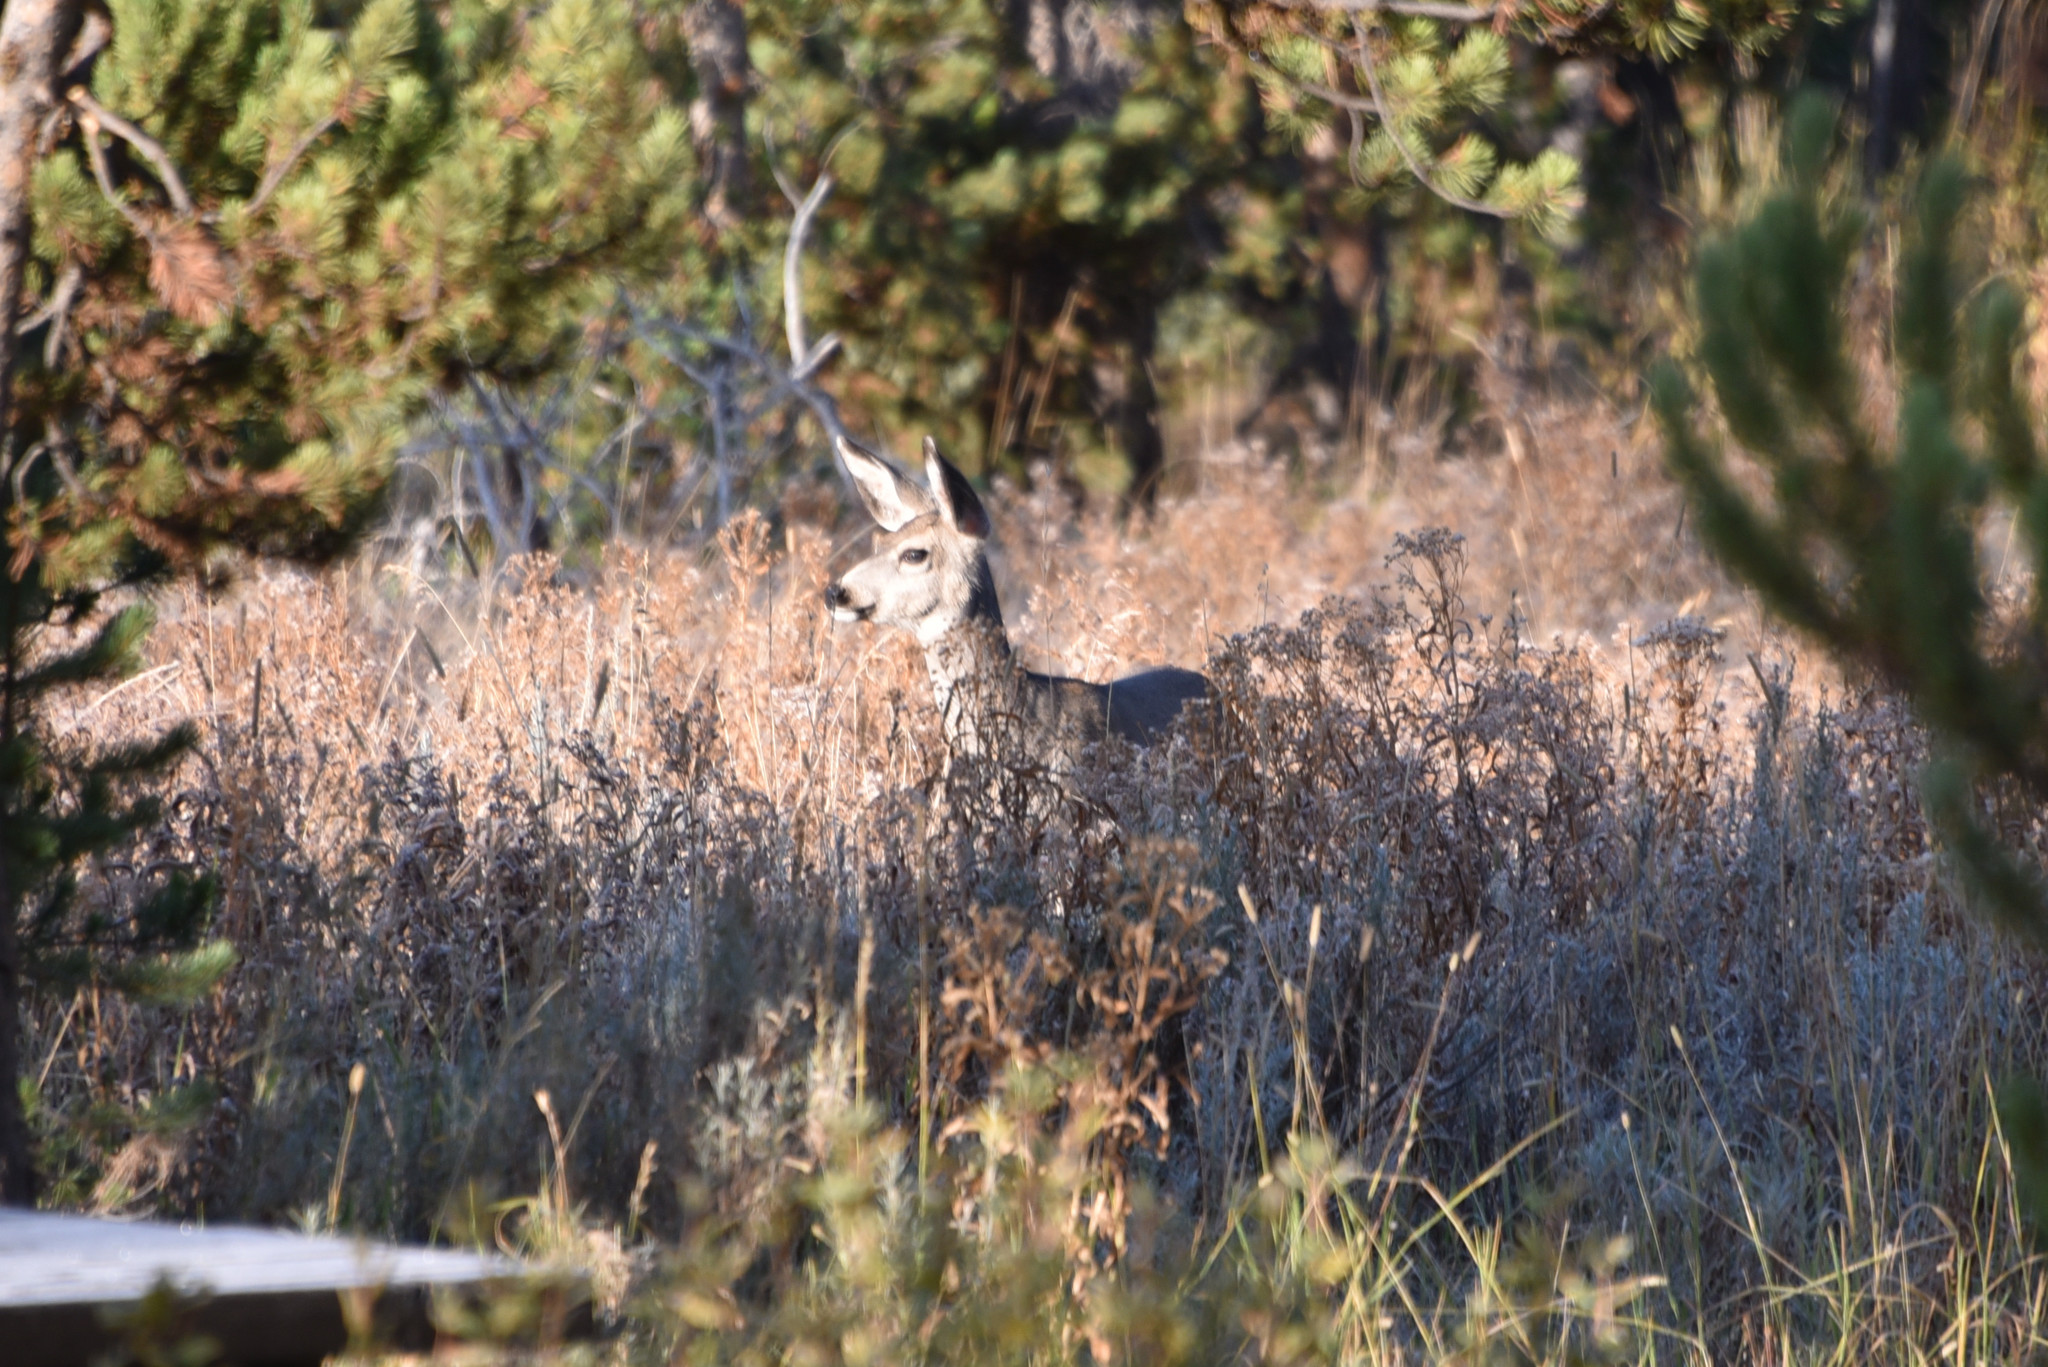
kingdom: Animalia
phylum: Chordata
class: Mammalia
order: Artiodactyla
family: Cervidae
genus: Odocoileus
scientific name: Odocoileus hemionus
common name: Mule deer
